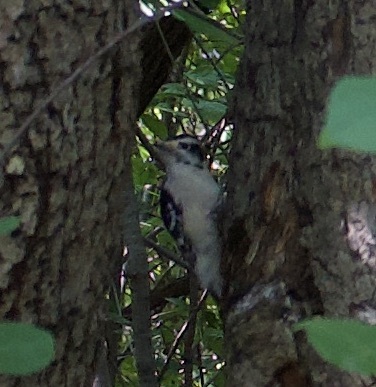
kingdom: Animalia
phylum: Chordata
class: Aves
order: Piciformes
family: Picidae
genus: Dryobates
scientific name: Dryobates pubescens
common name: Downy woodpecker
